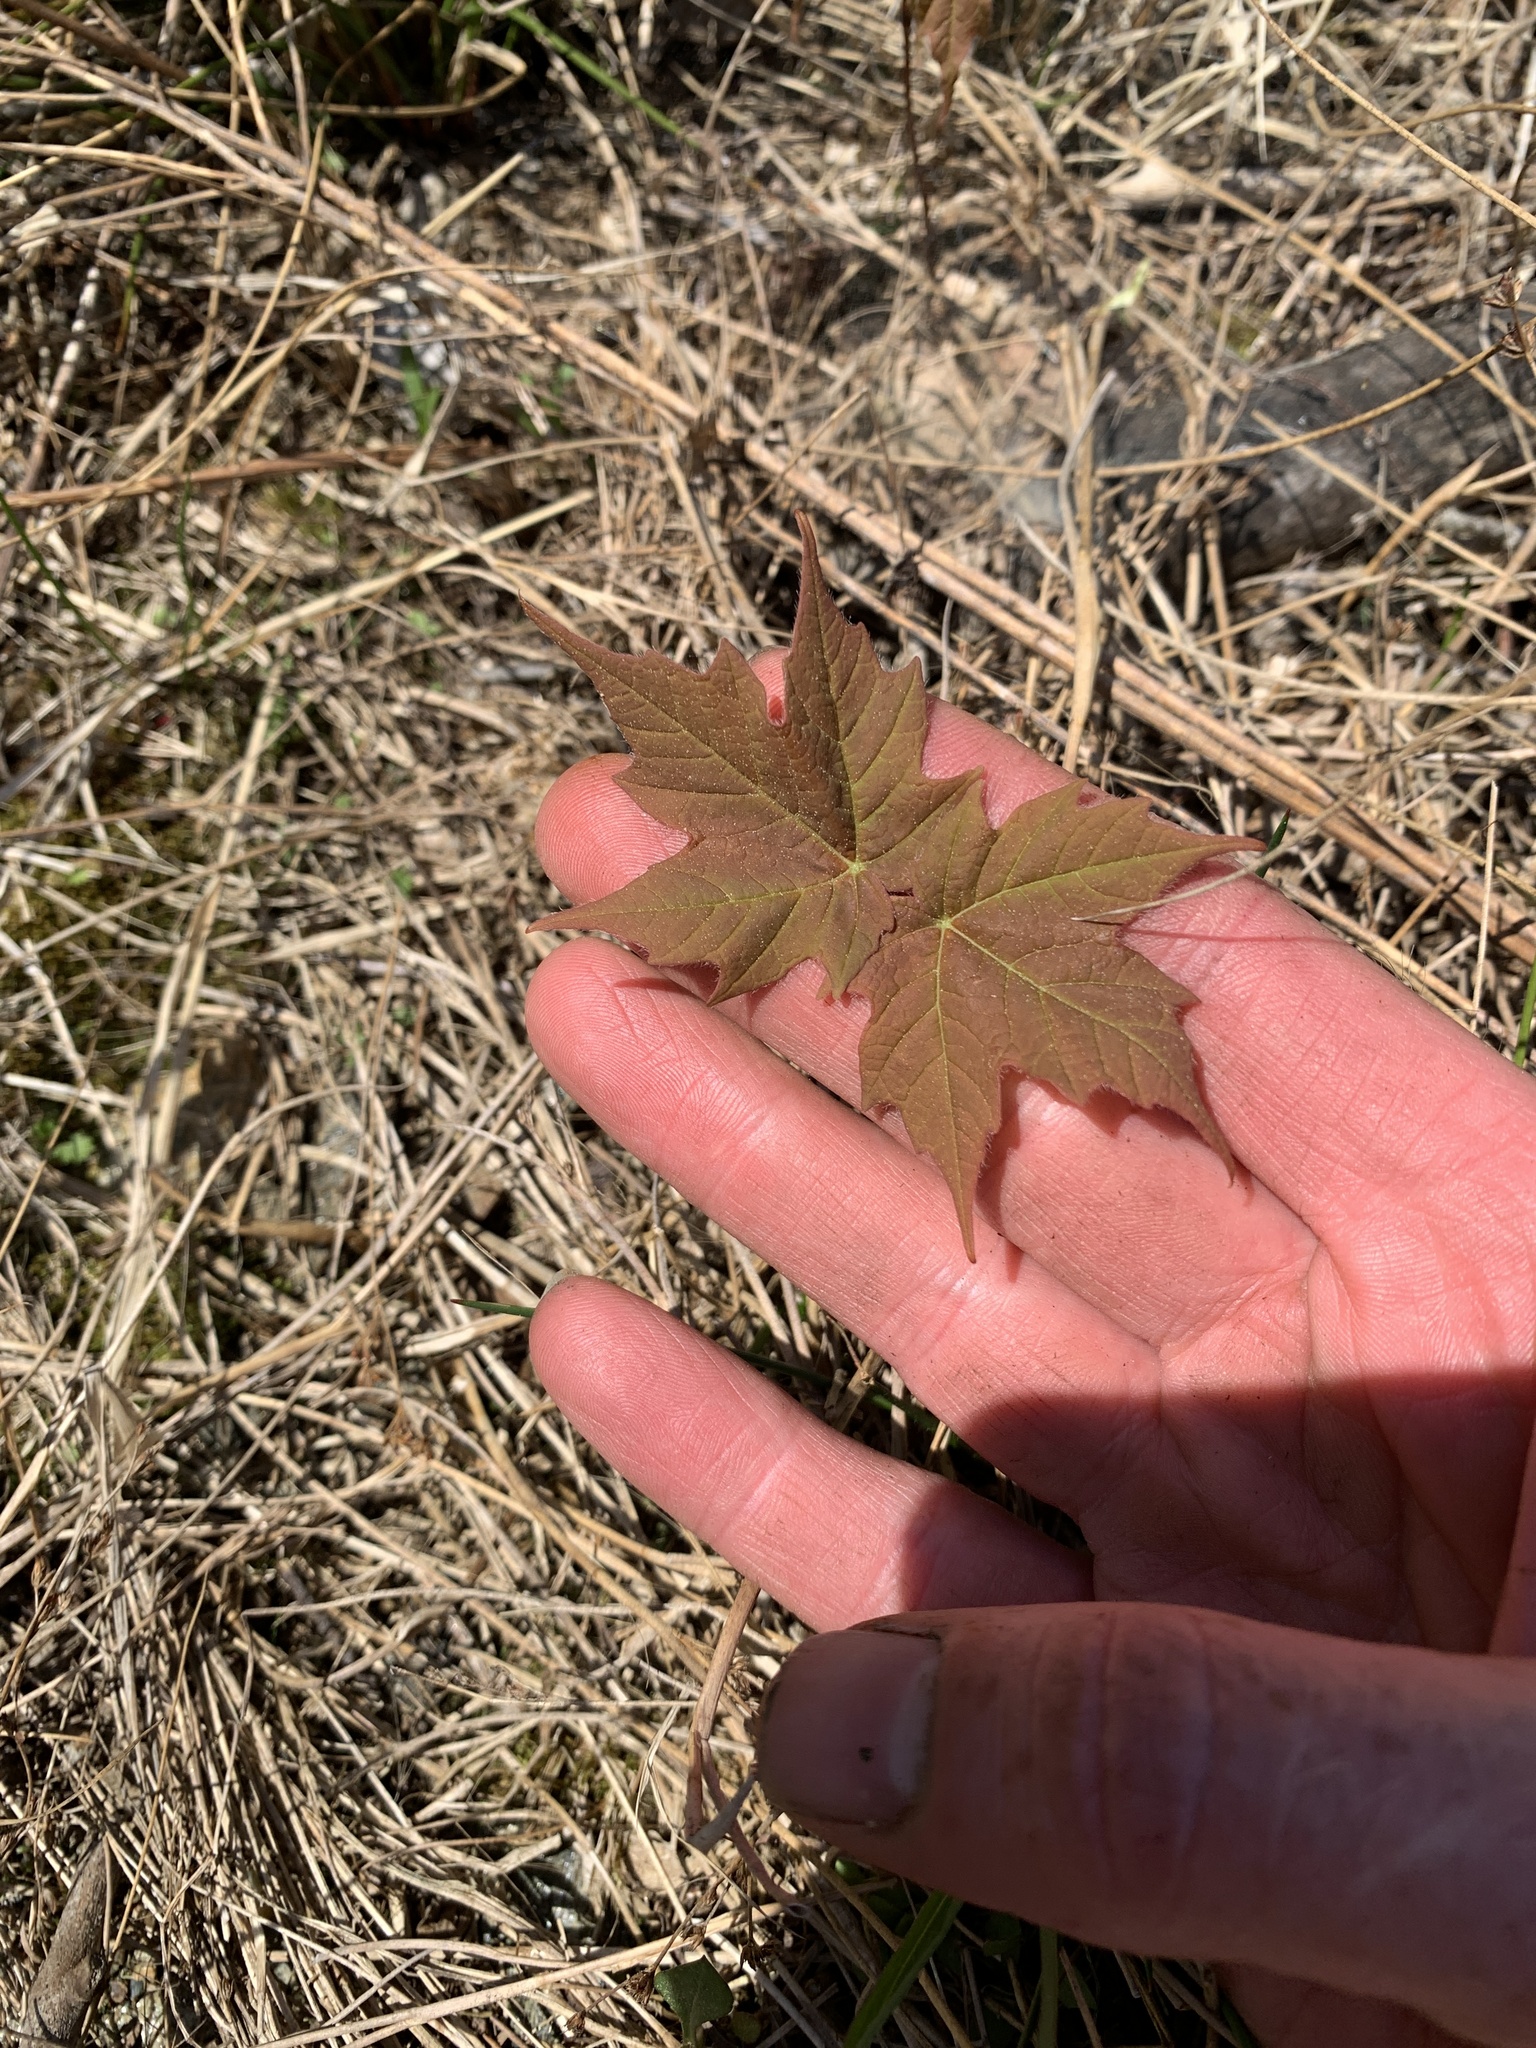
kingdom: Plantae
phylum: Tracheophyta
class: Magnoliopsida
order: Sapindales
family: Sapindaceae
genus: Acer
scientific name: Acer saccharum
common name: Sugar maple
